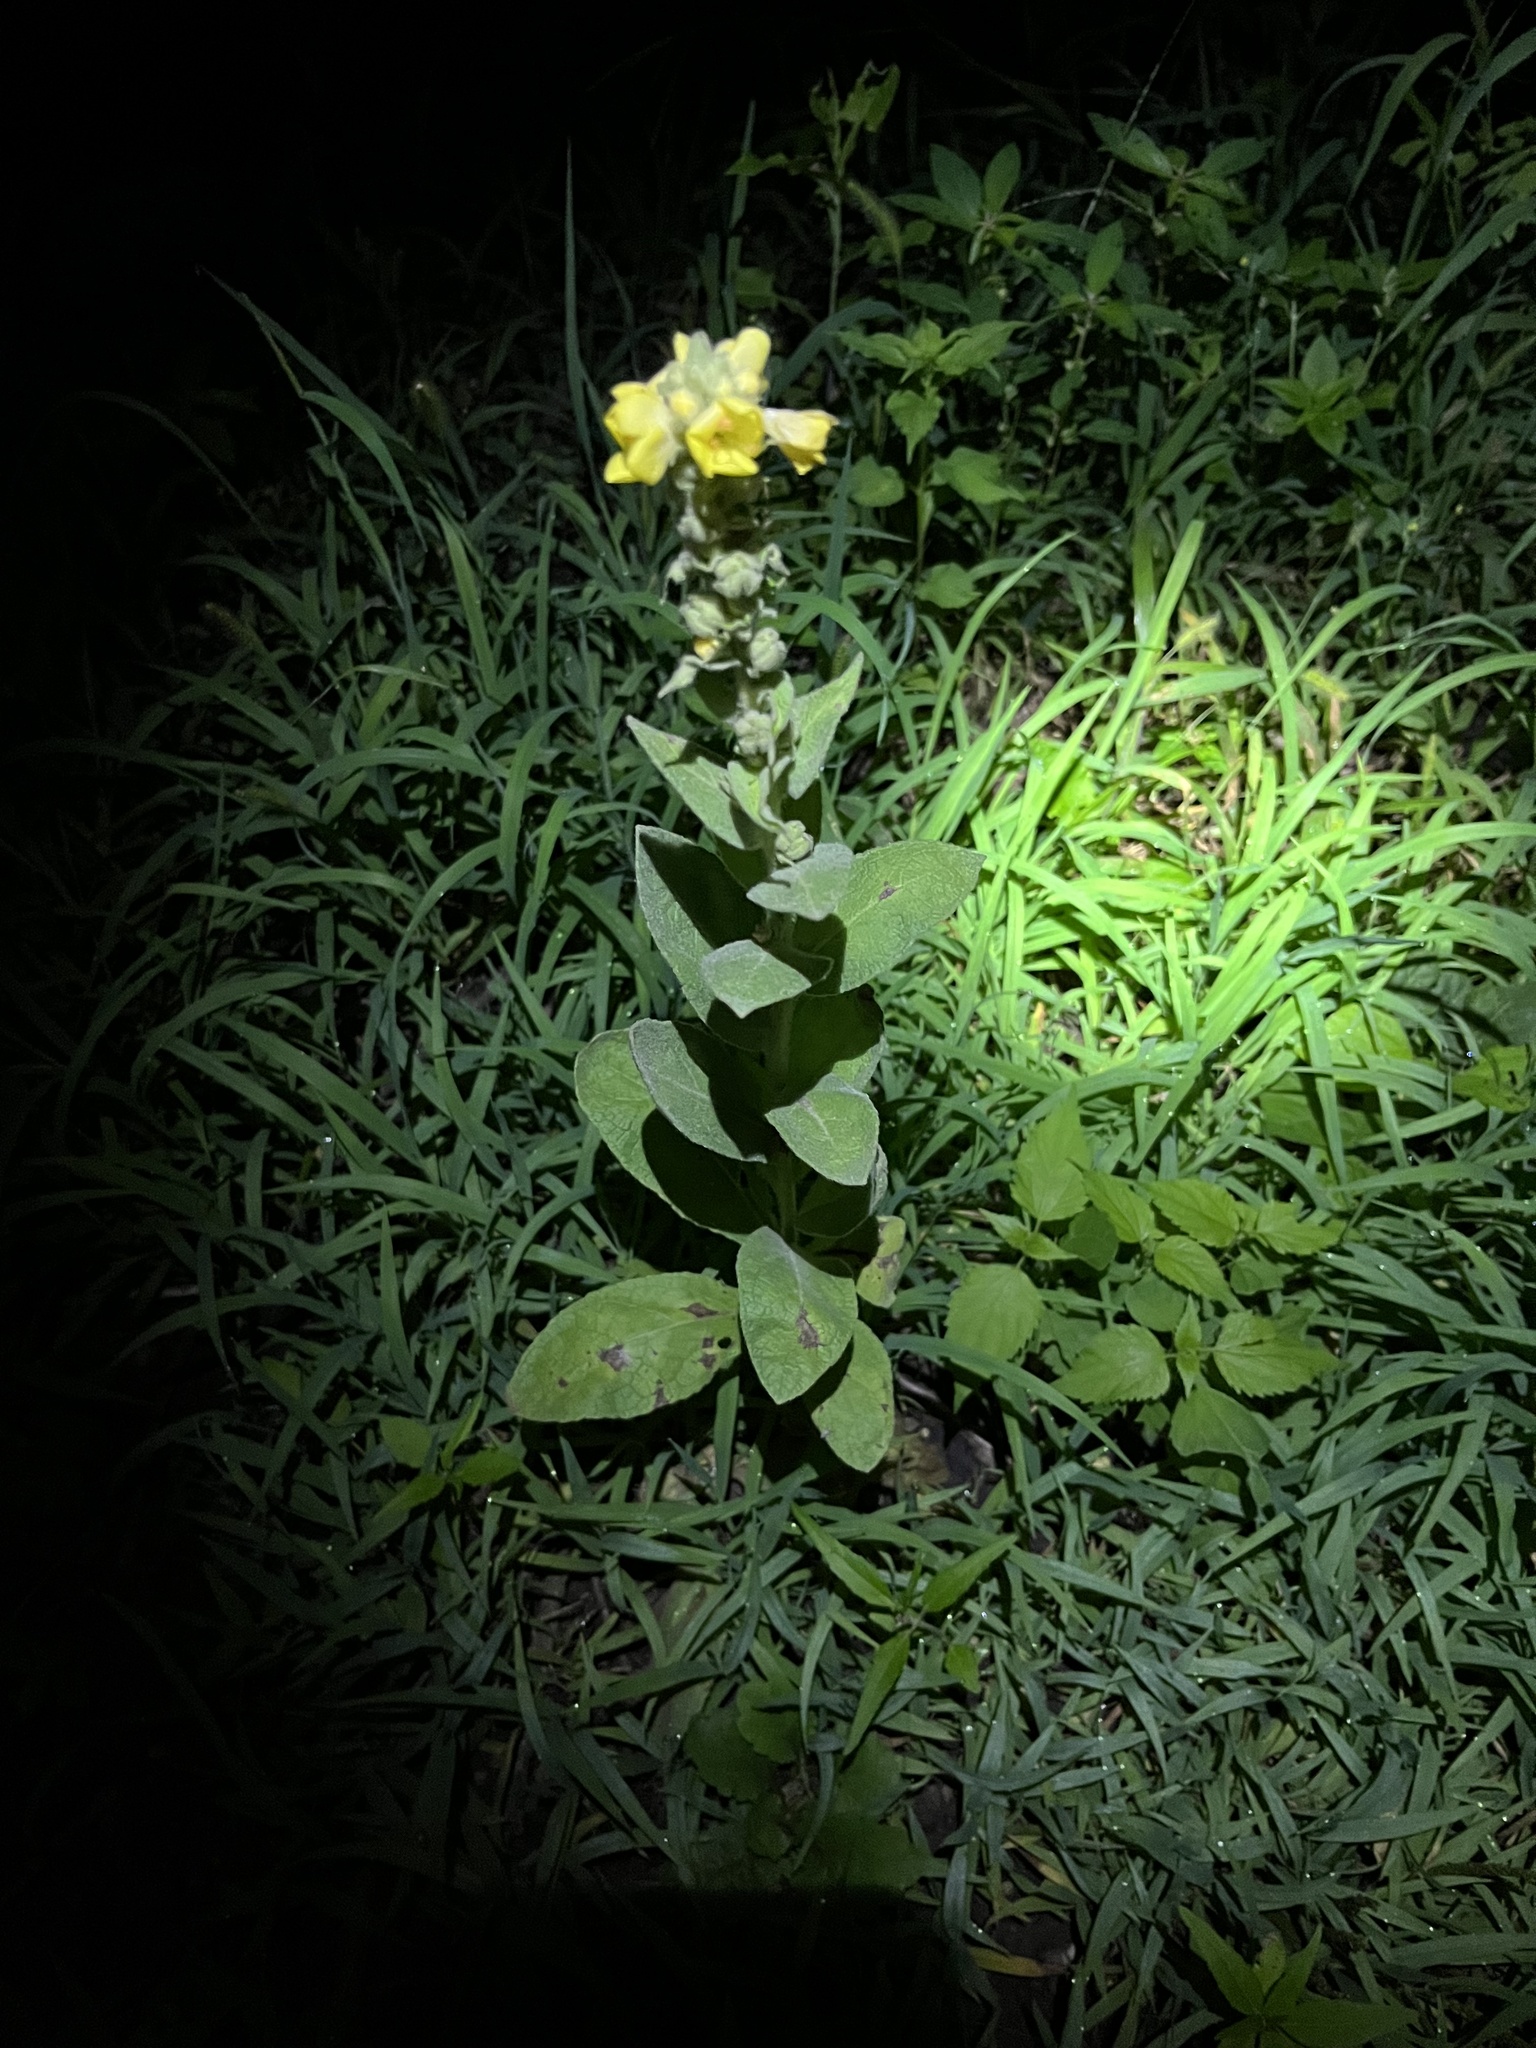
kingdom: Plantae
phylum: Tracheophyta
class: Magnoliopsida
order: Lamiales
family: Scrophulariaceae
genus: Verbascum
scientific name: Verbascum thapsus
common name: Common mullein
